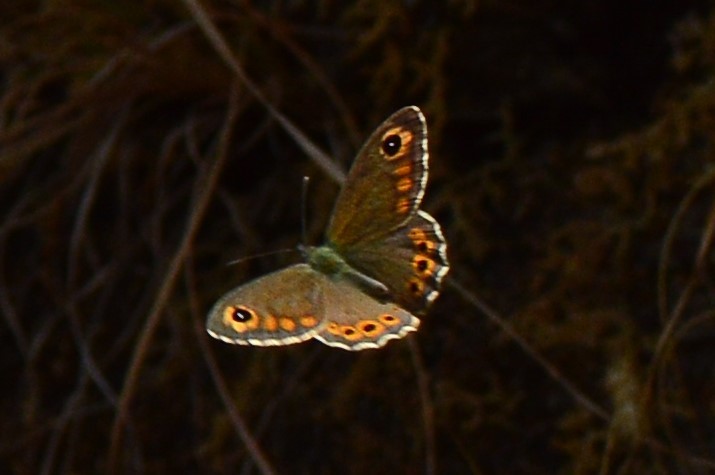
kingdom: Animalia
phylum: Arthropoda
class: Insecta
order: Lepidoptera
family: Nymphalidae
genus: Pararge
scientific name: Pararge Lasiommata schakra
